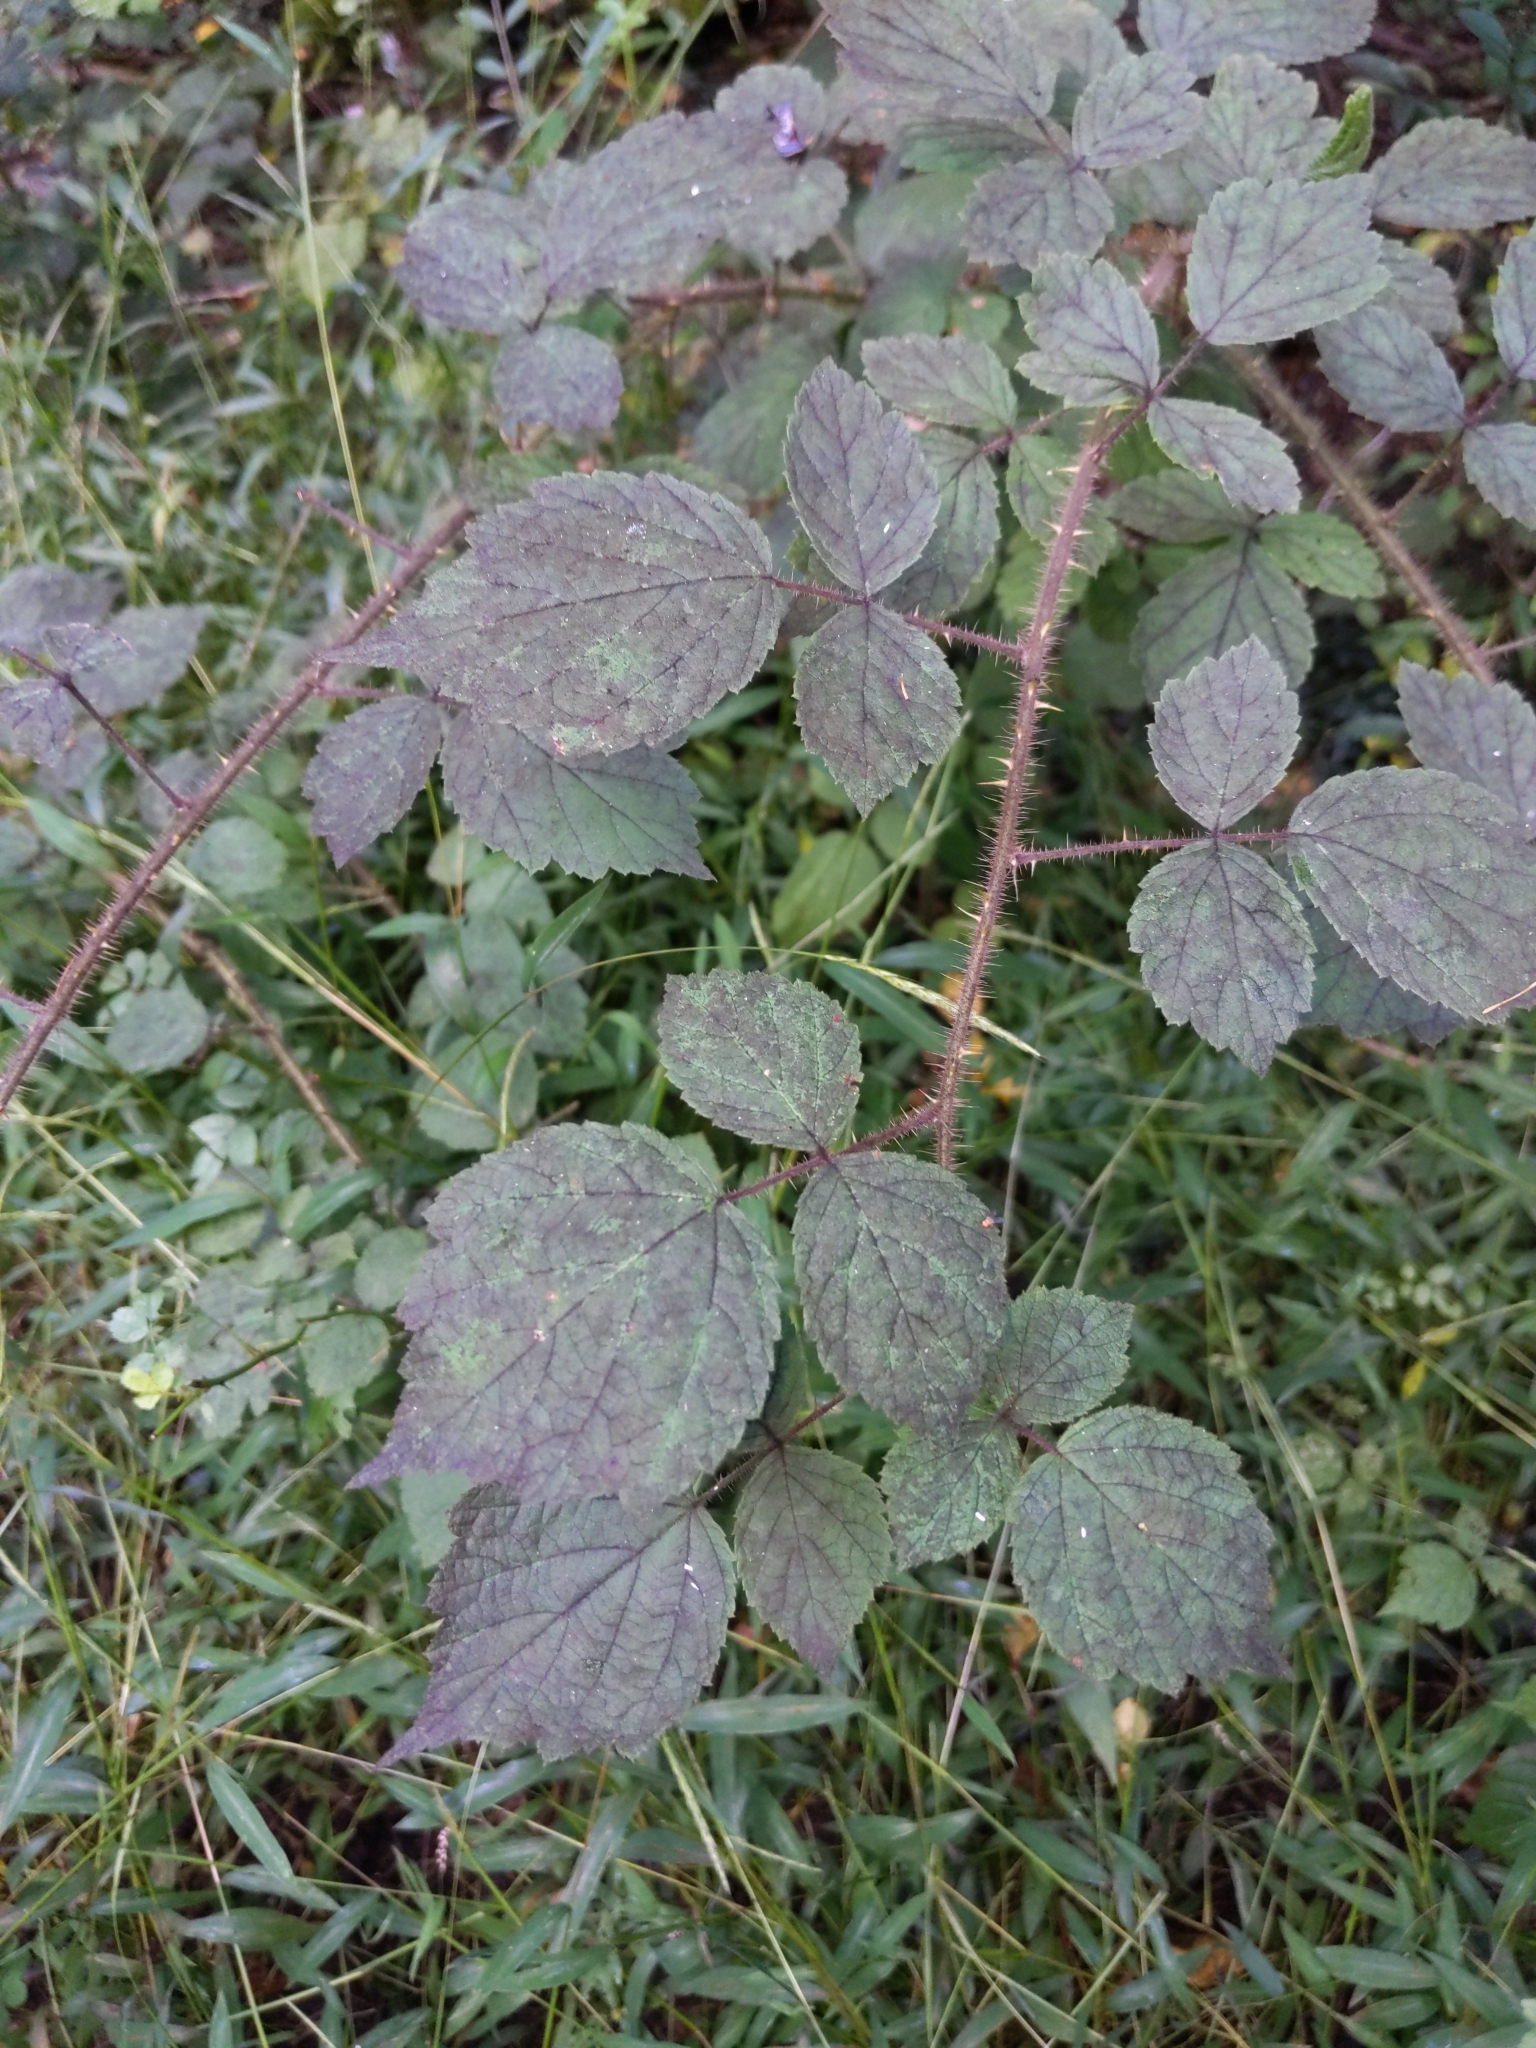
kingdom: Plantae
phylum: Tracheophyta
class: Magnoliopsida
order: Rosales
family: Rosaceae
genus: Rubus
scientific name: Rubus phoenicolasius
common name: Japanese wineberry
